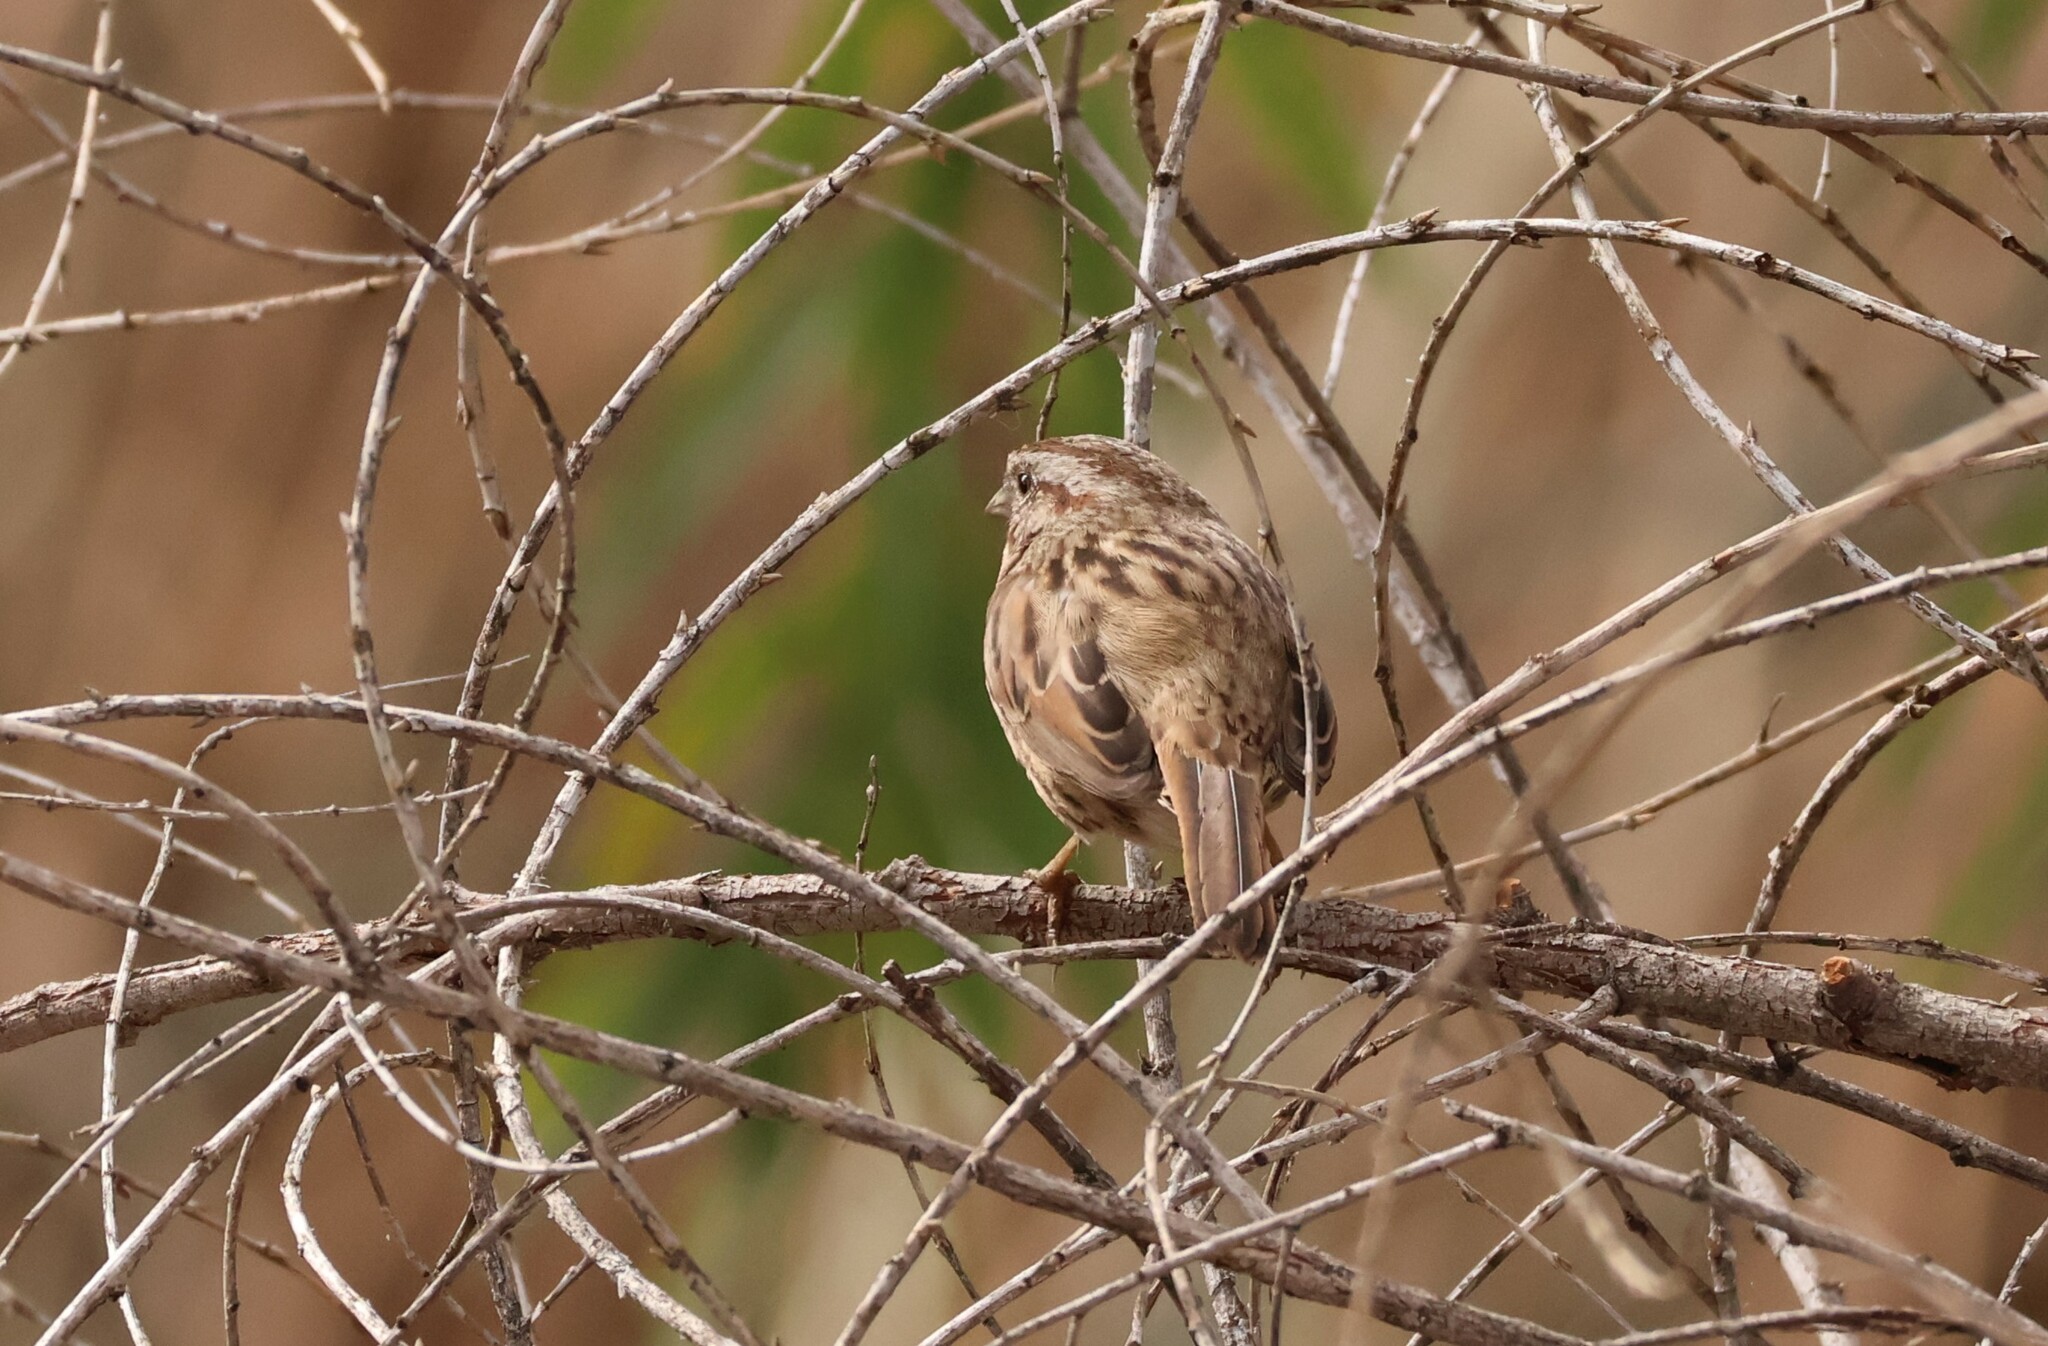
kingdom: Animalia
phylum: Chordata
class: Aves
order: Passeriformes
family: Passerellidae
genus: Melospiza
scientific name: Melospiza melodia
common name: Song sparrow
